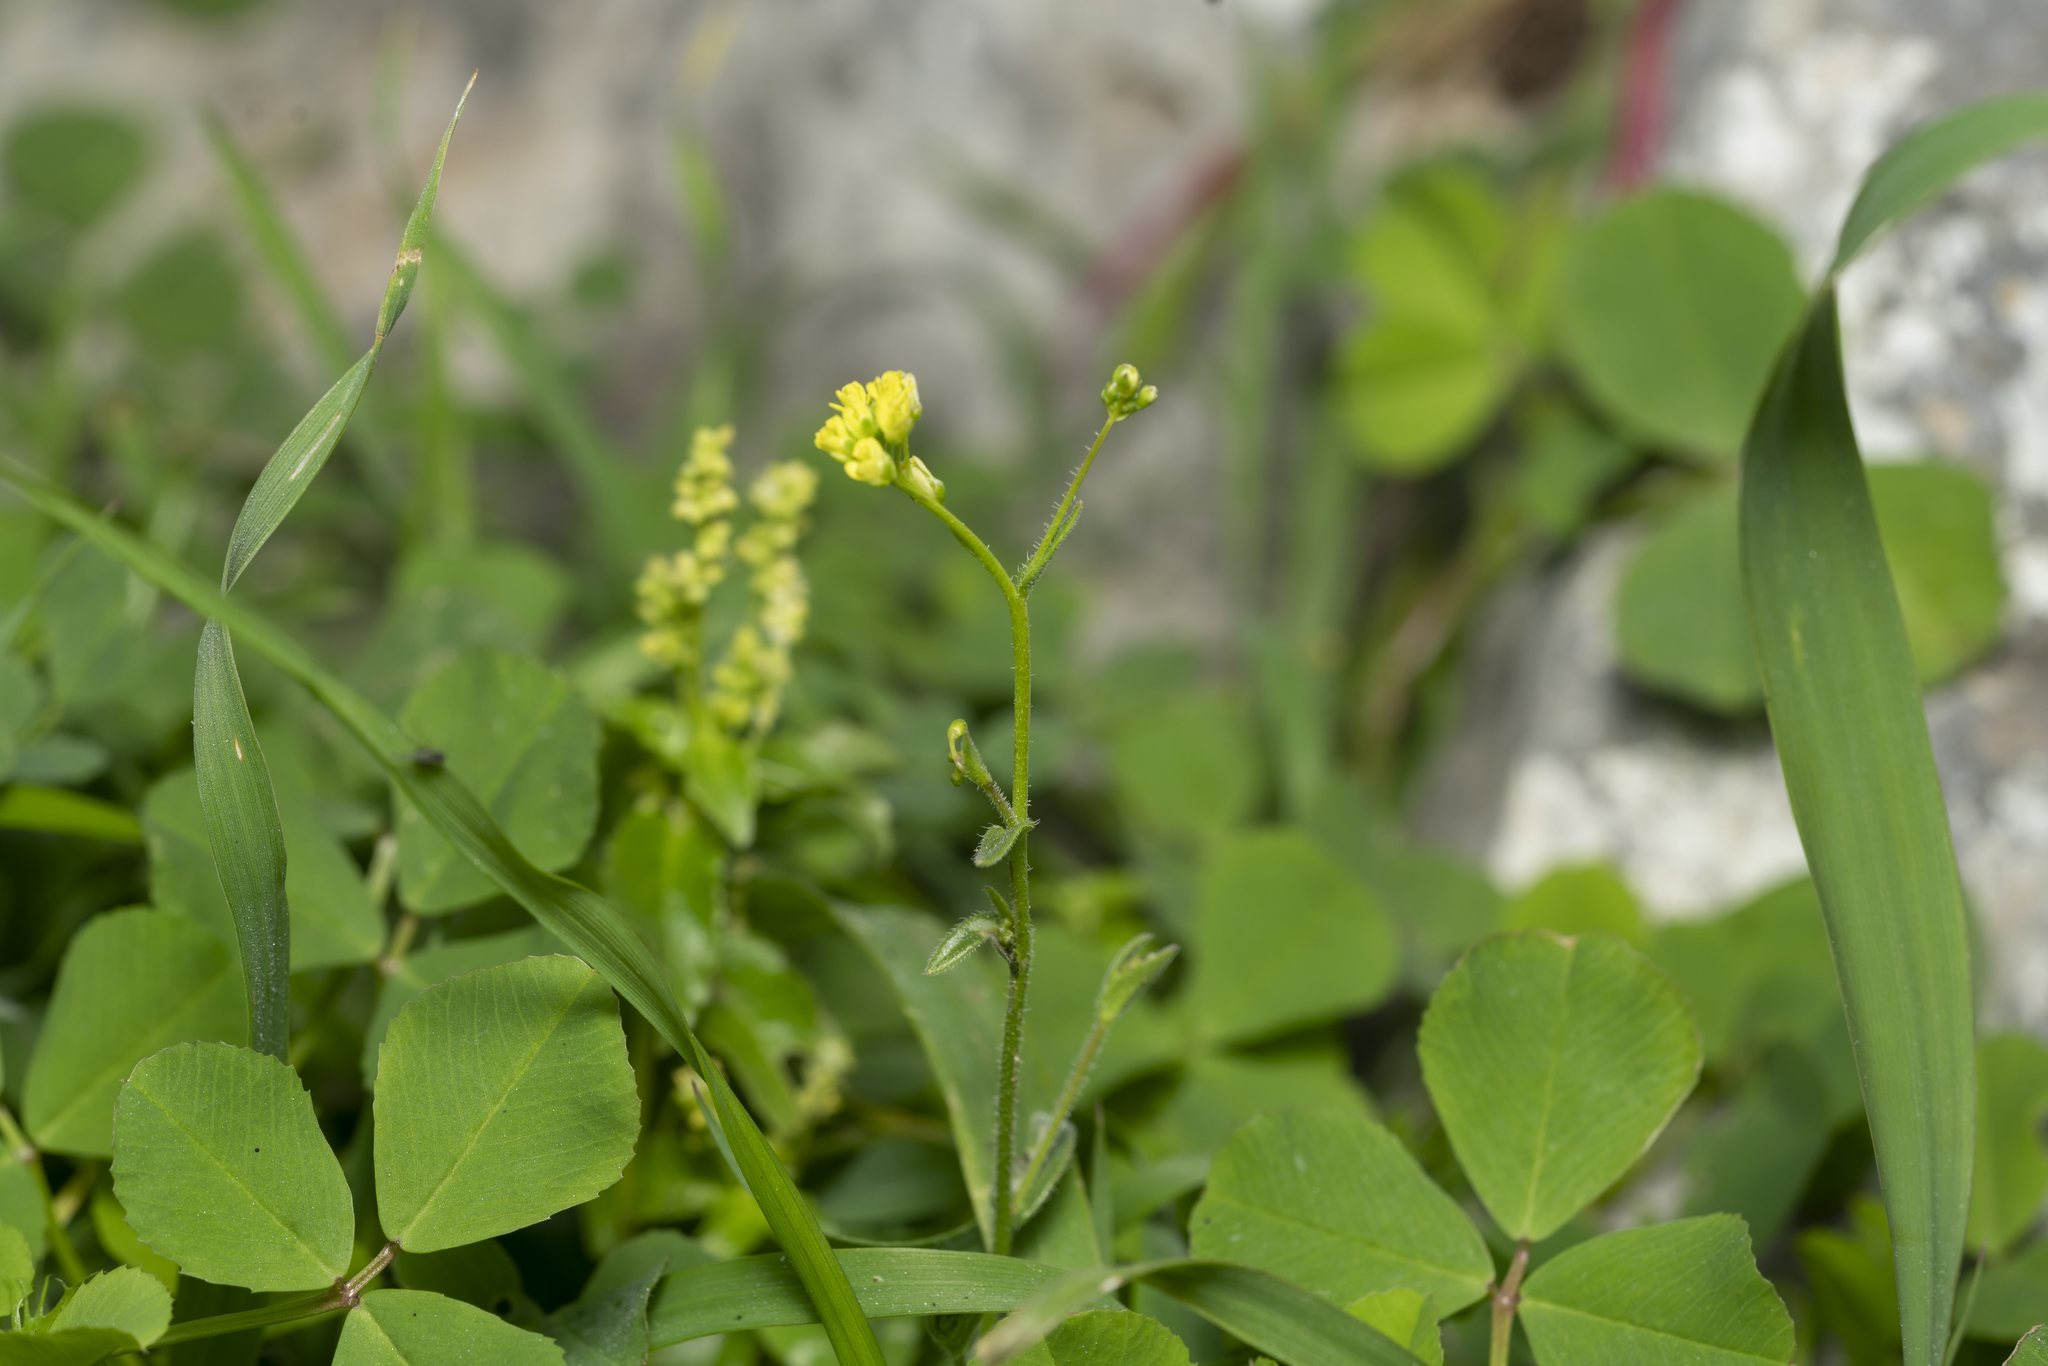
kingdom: Plantae
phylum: Tracheophyta
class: Magnoliopsida
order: Brassicales
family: Brassicaceae
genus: Isatis
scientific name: Isatis lusitanica
